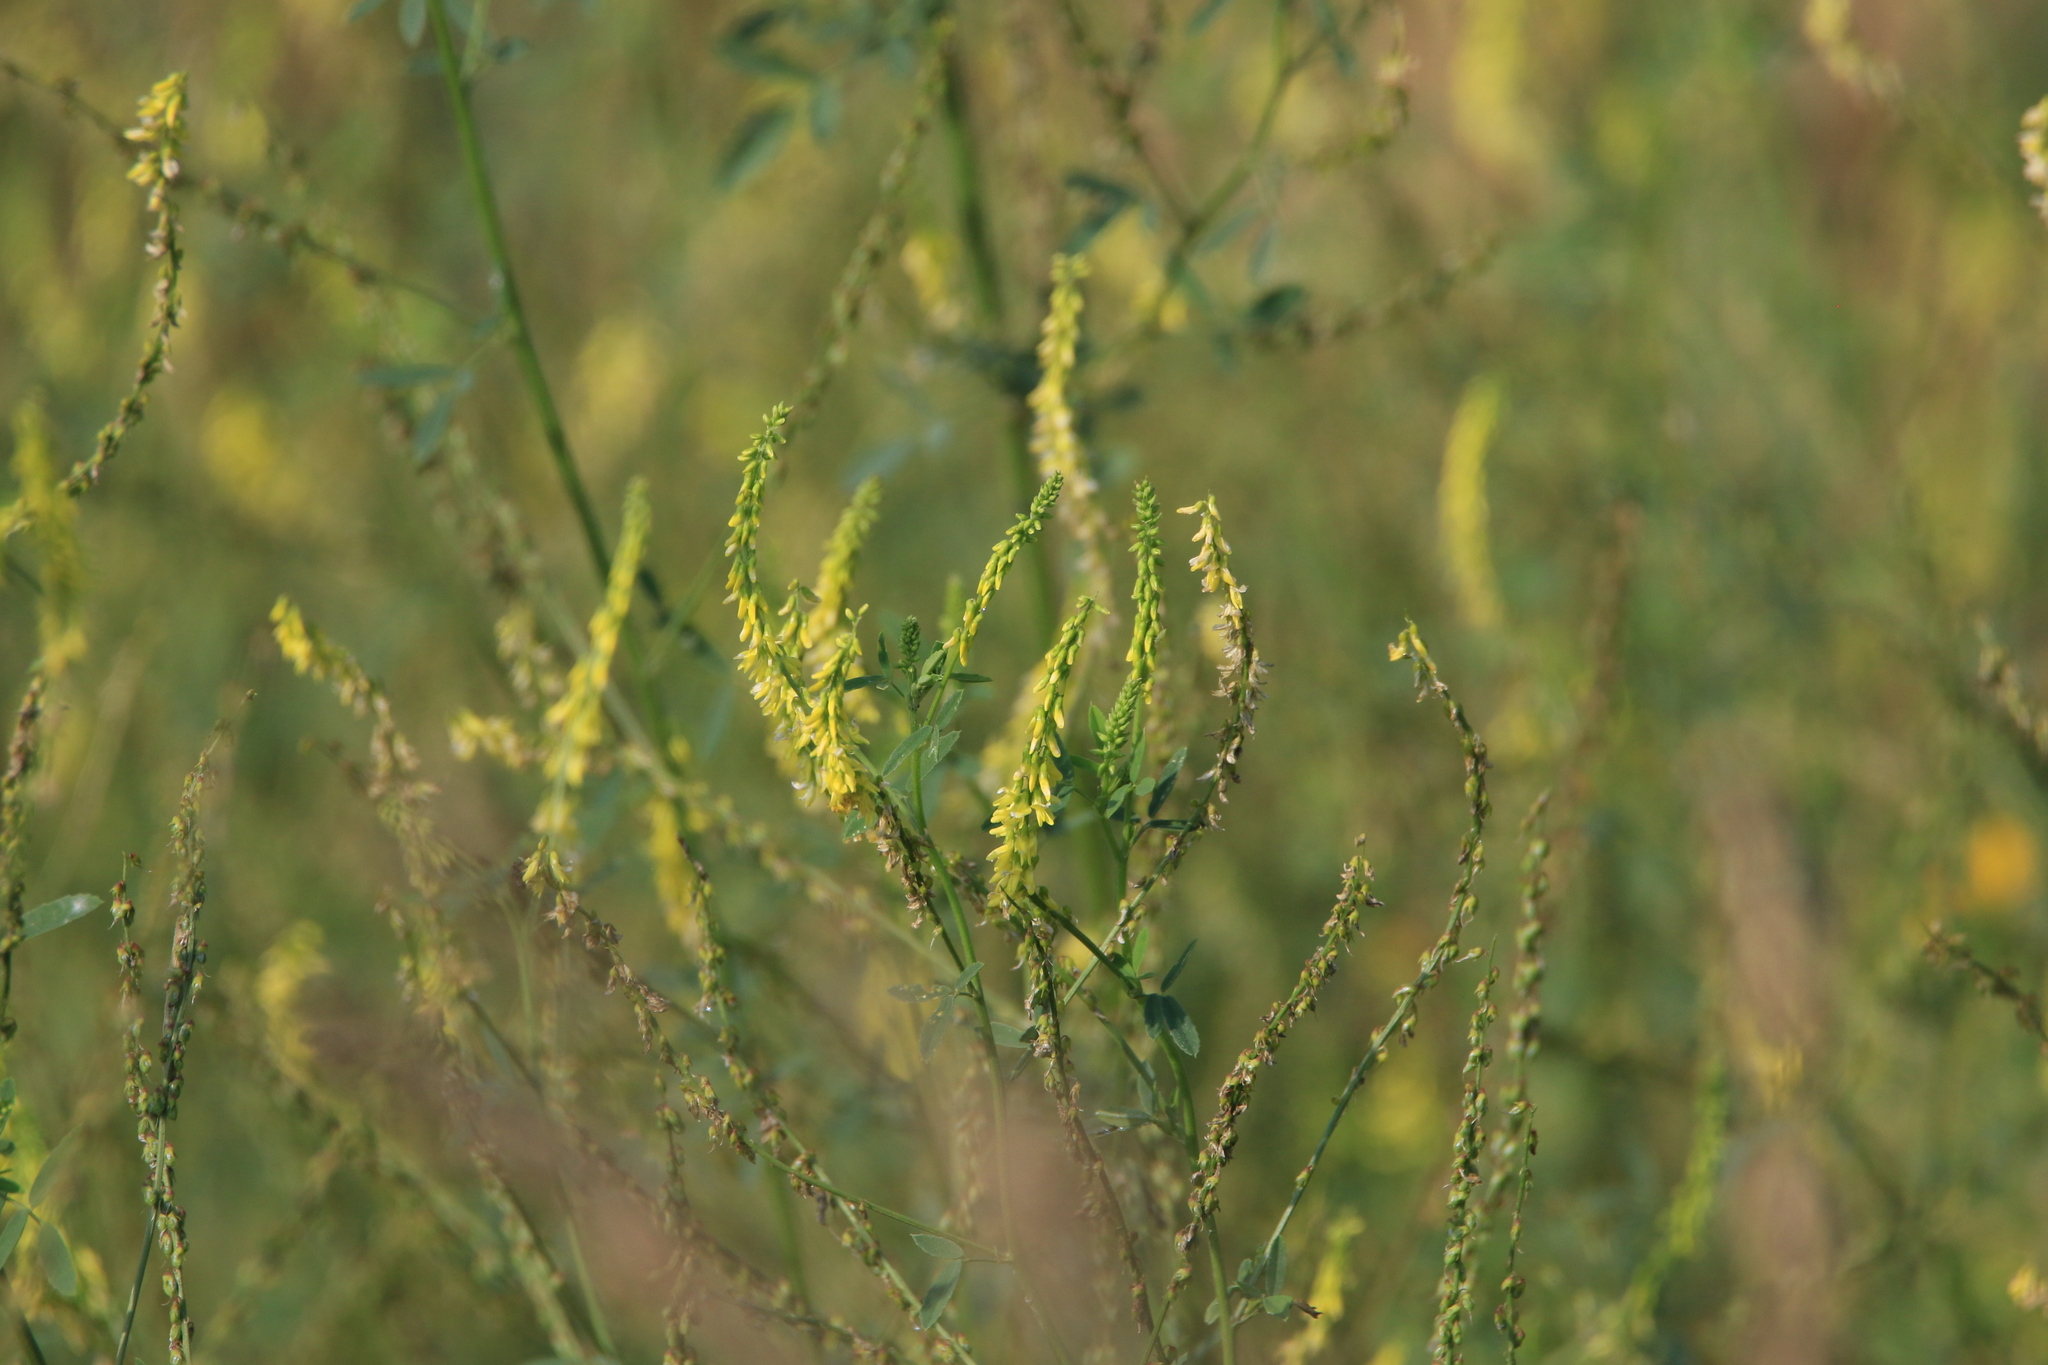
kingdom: Plantae
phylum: Tracheophyta
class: Magnoliopsida
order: Fabales
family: Fabaceae
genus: Melilotus
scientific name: Melilotus officinalis
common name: Sweetclover
